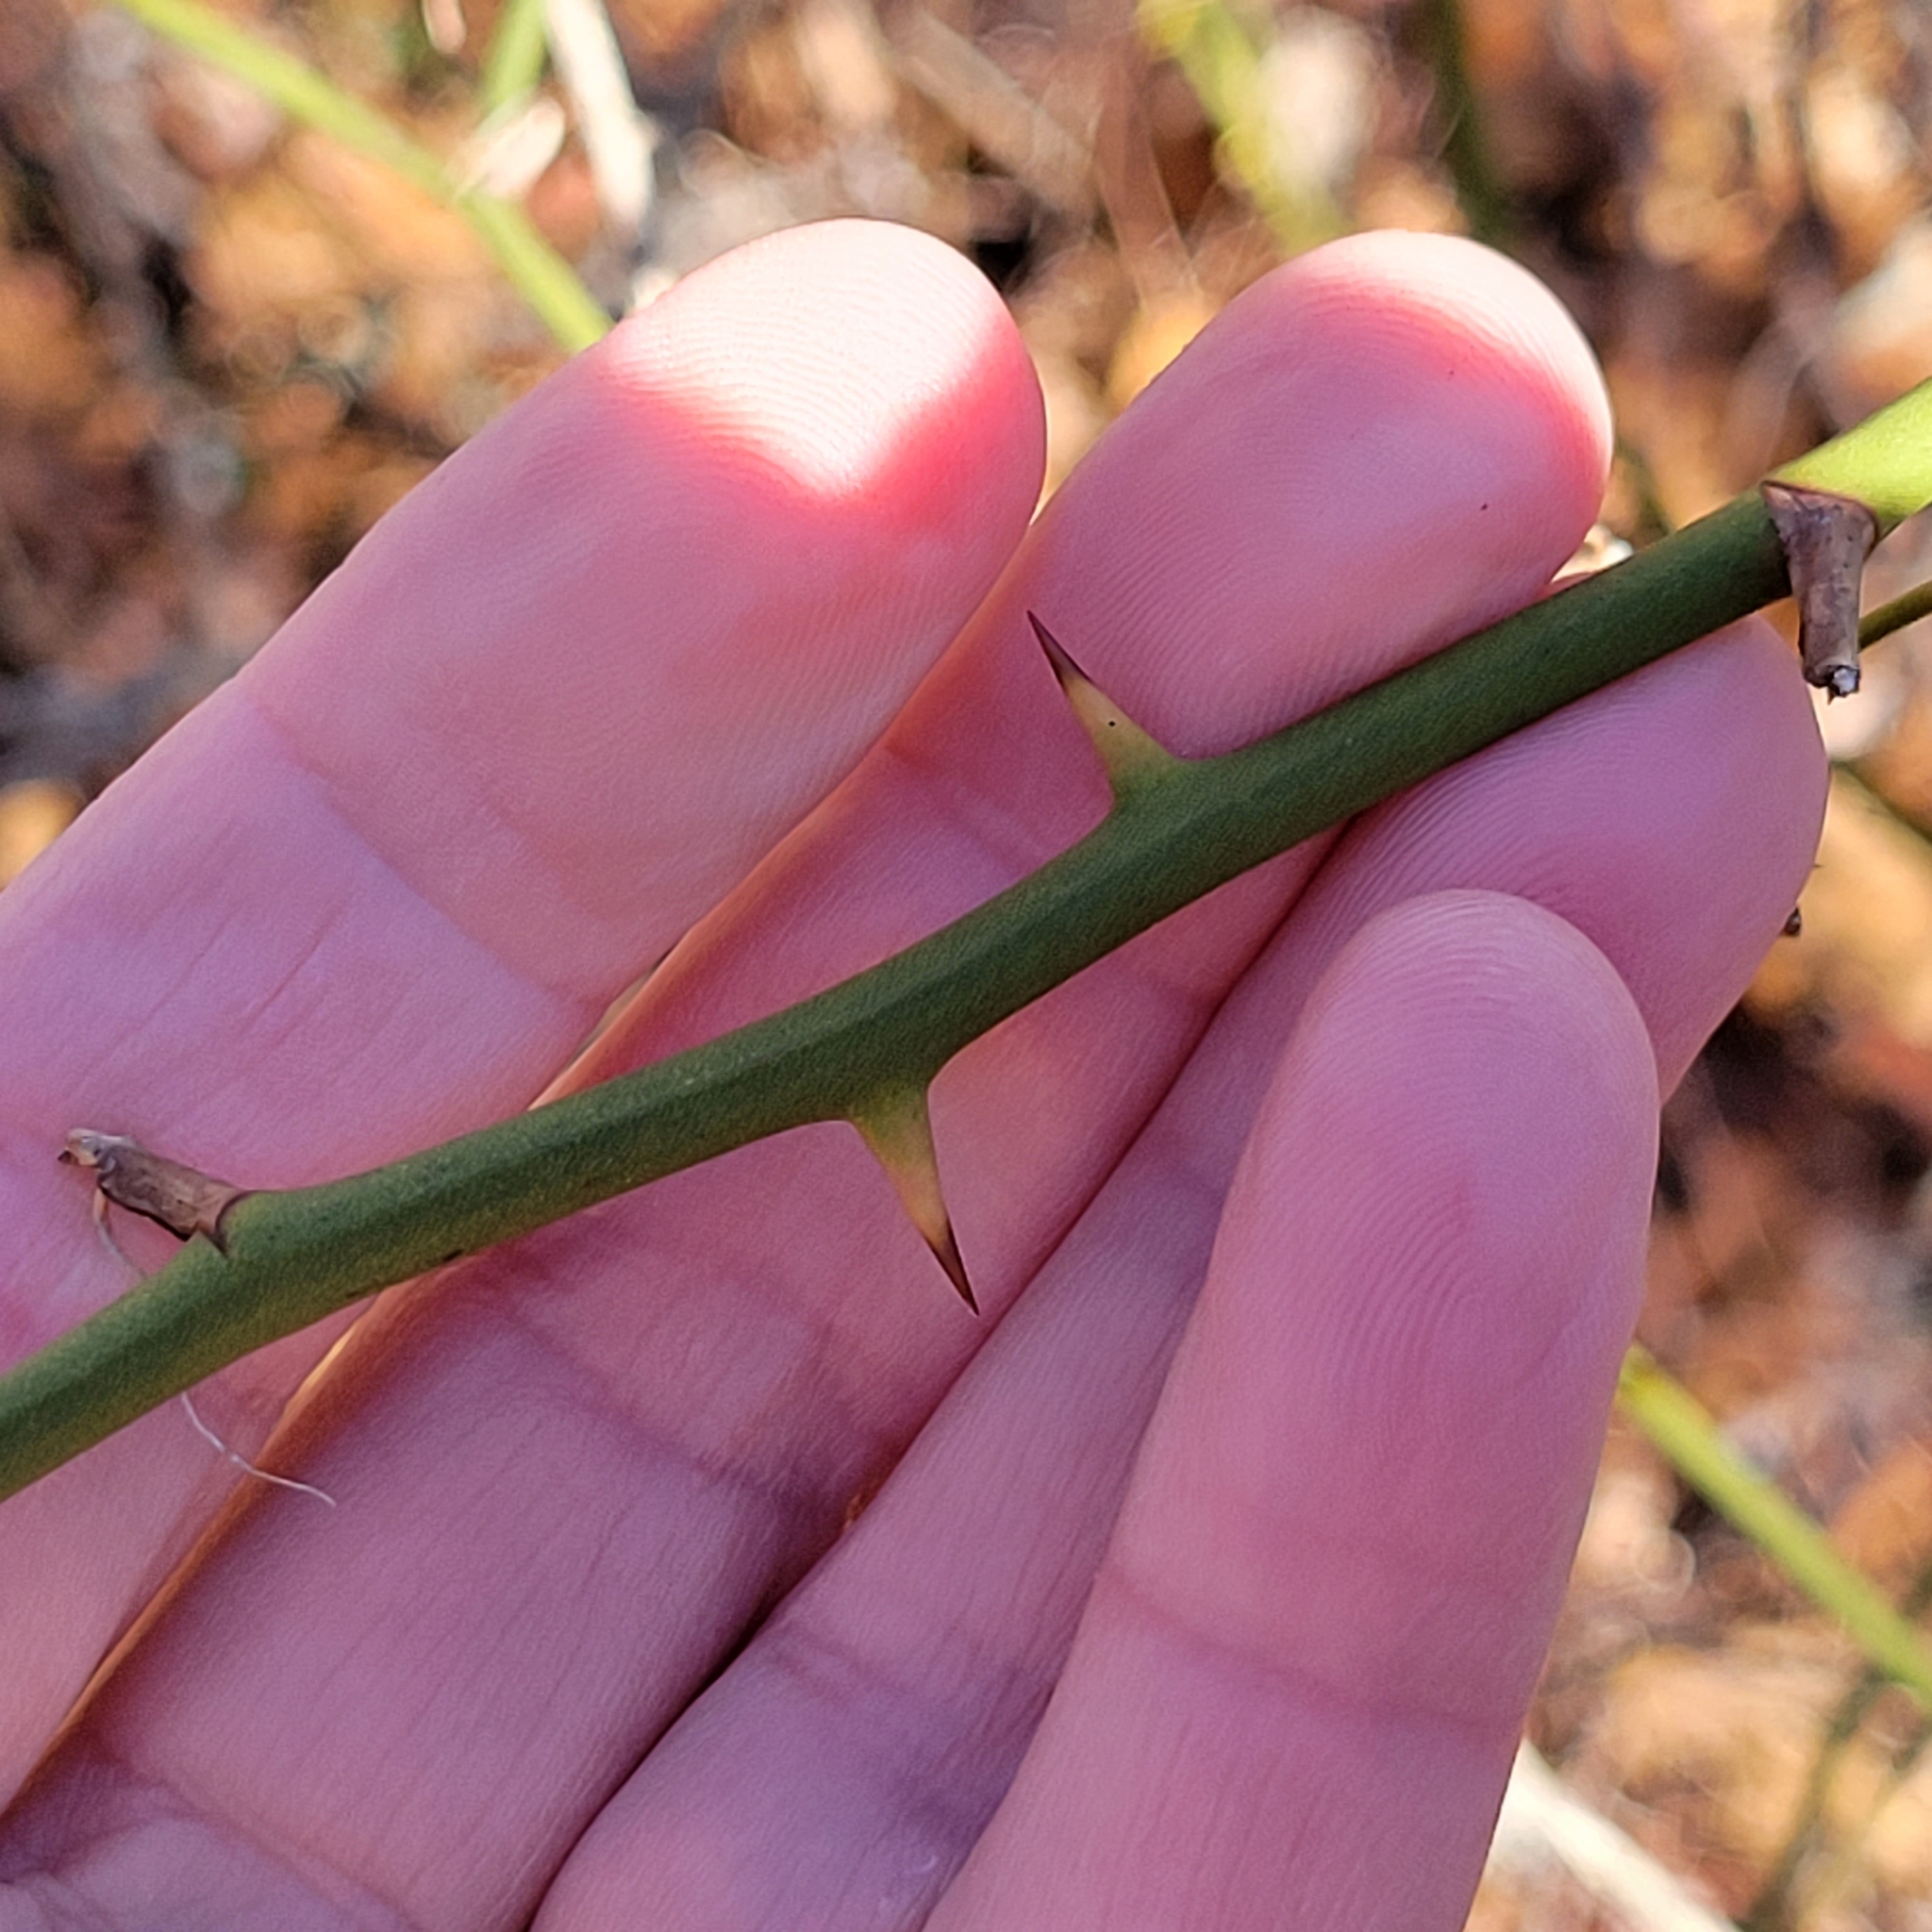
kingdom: Plantae
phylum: Tracheophyta
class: Liliopsida
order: Liliales
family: Smilacaceae
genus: Smilax
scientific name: Smilax rotundifolia
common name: Bullbriar
